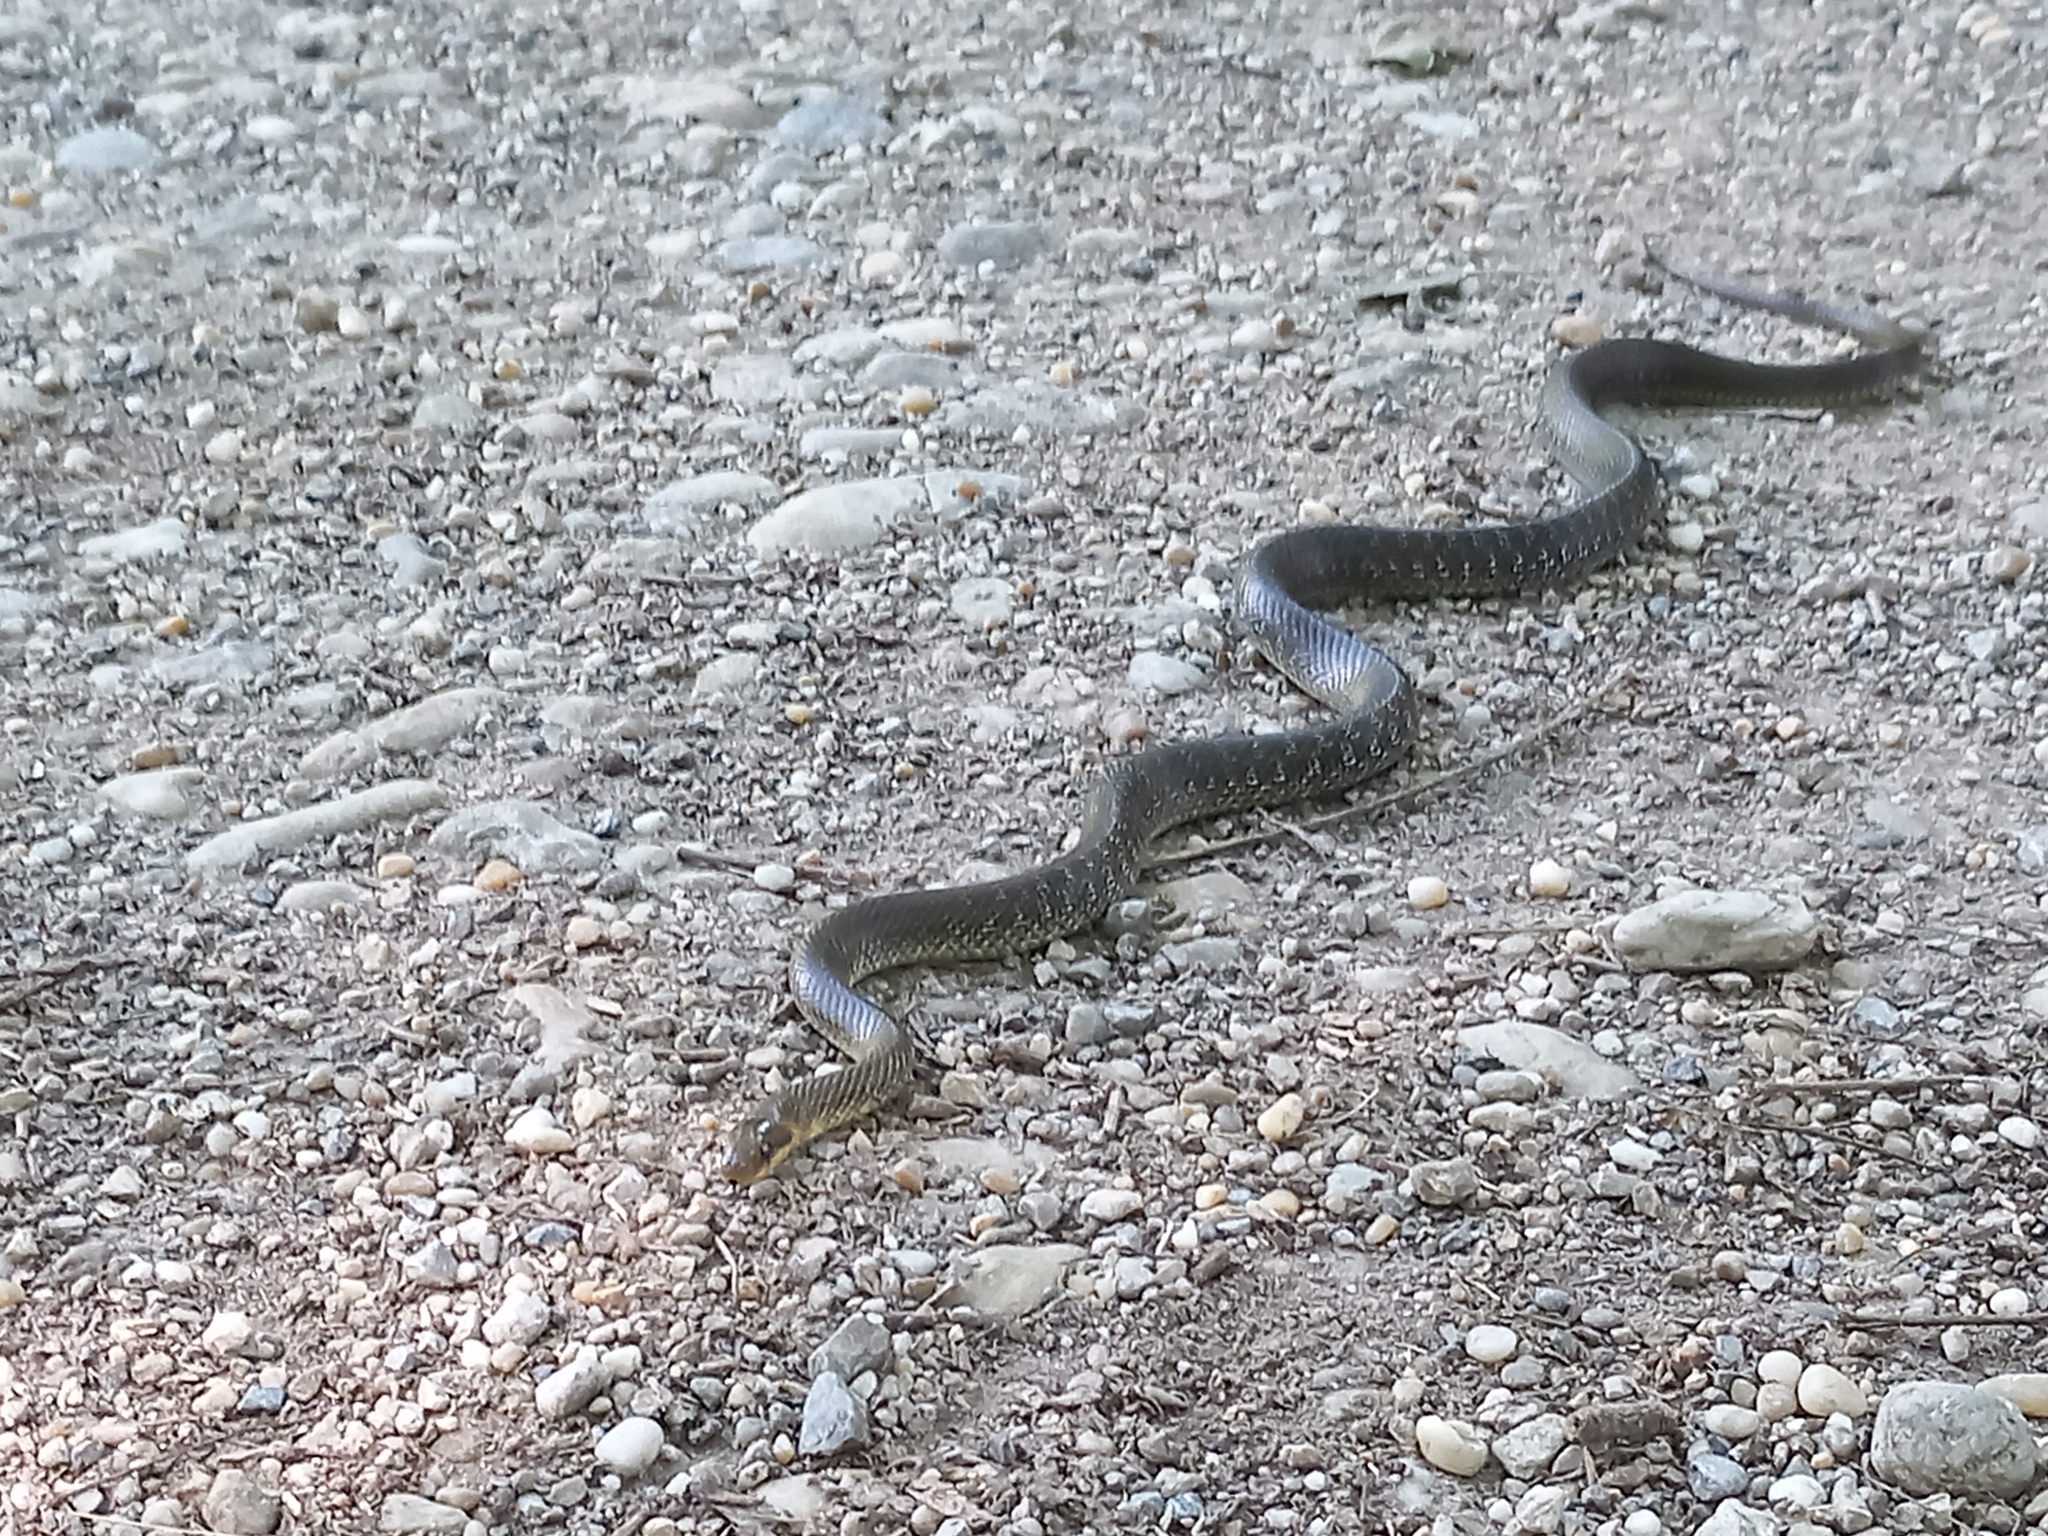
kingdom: Animalia
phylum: Chordata
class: Squamata
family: Colubridae
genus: Zamenis
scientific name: Zamenis longissimus
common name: Aesculapean snake
